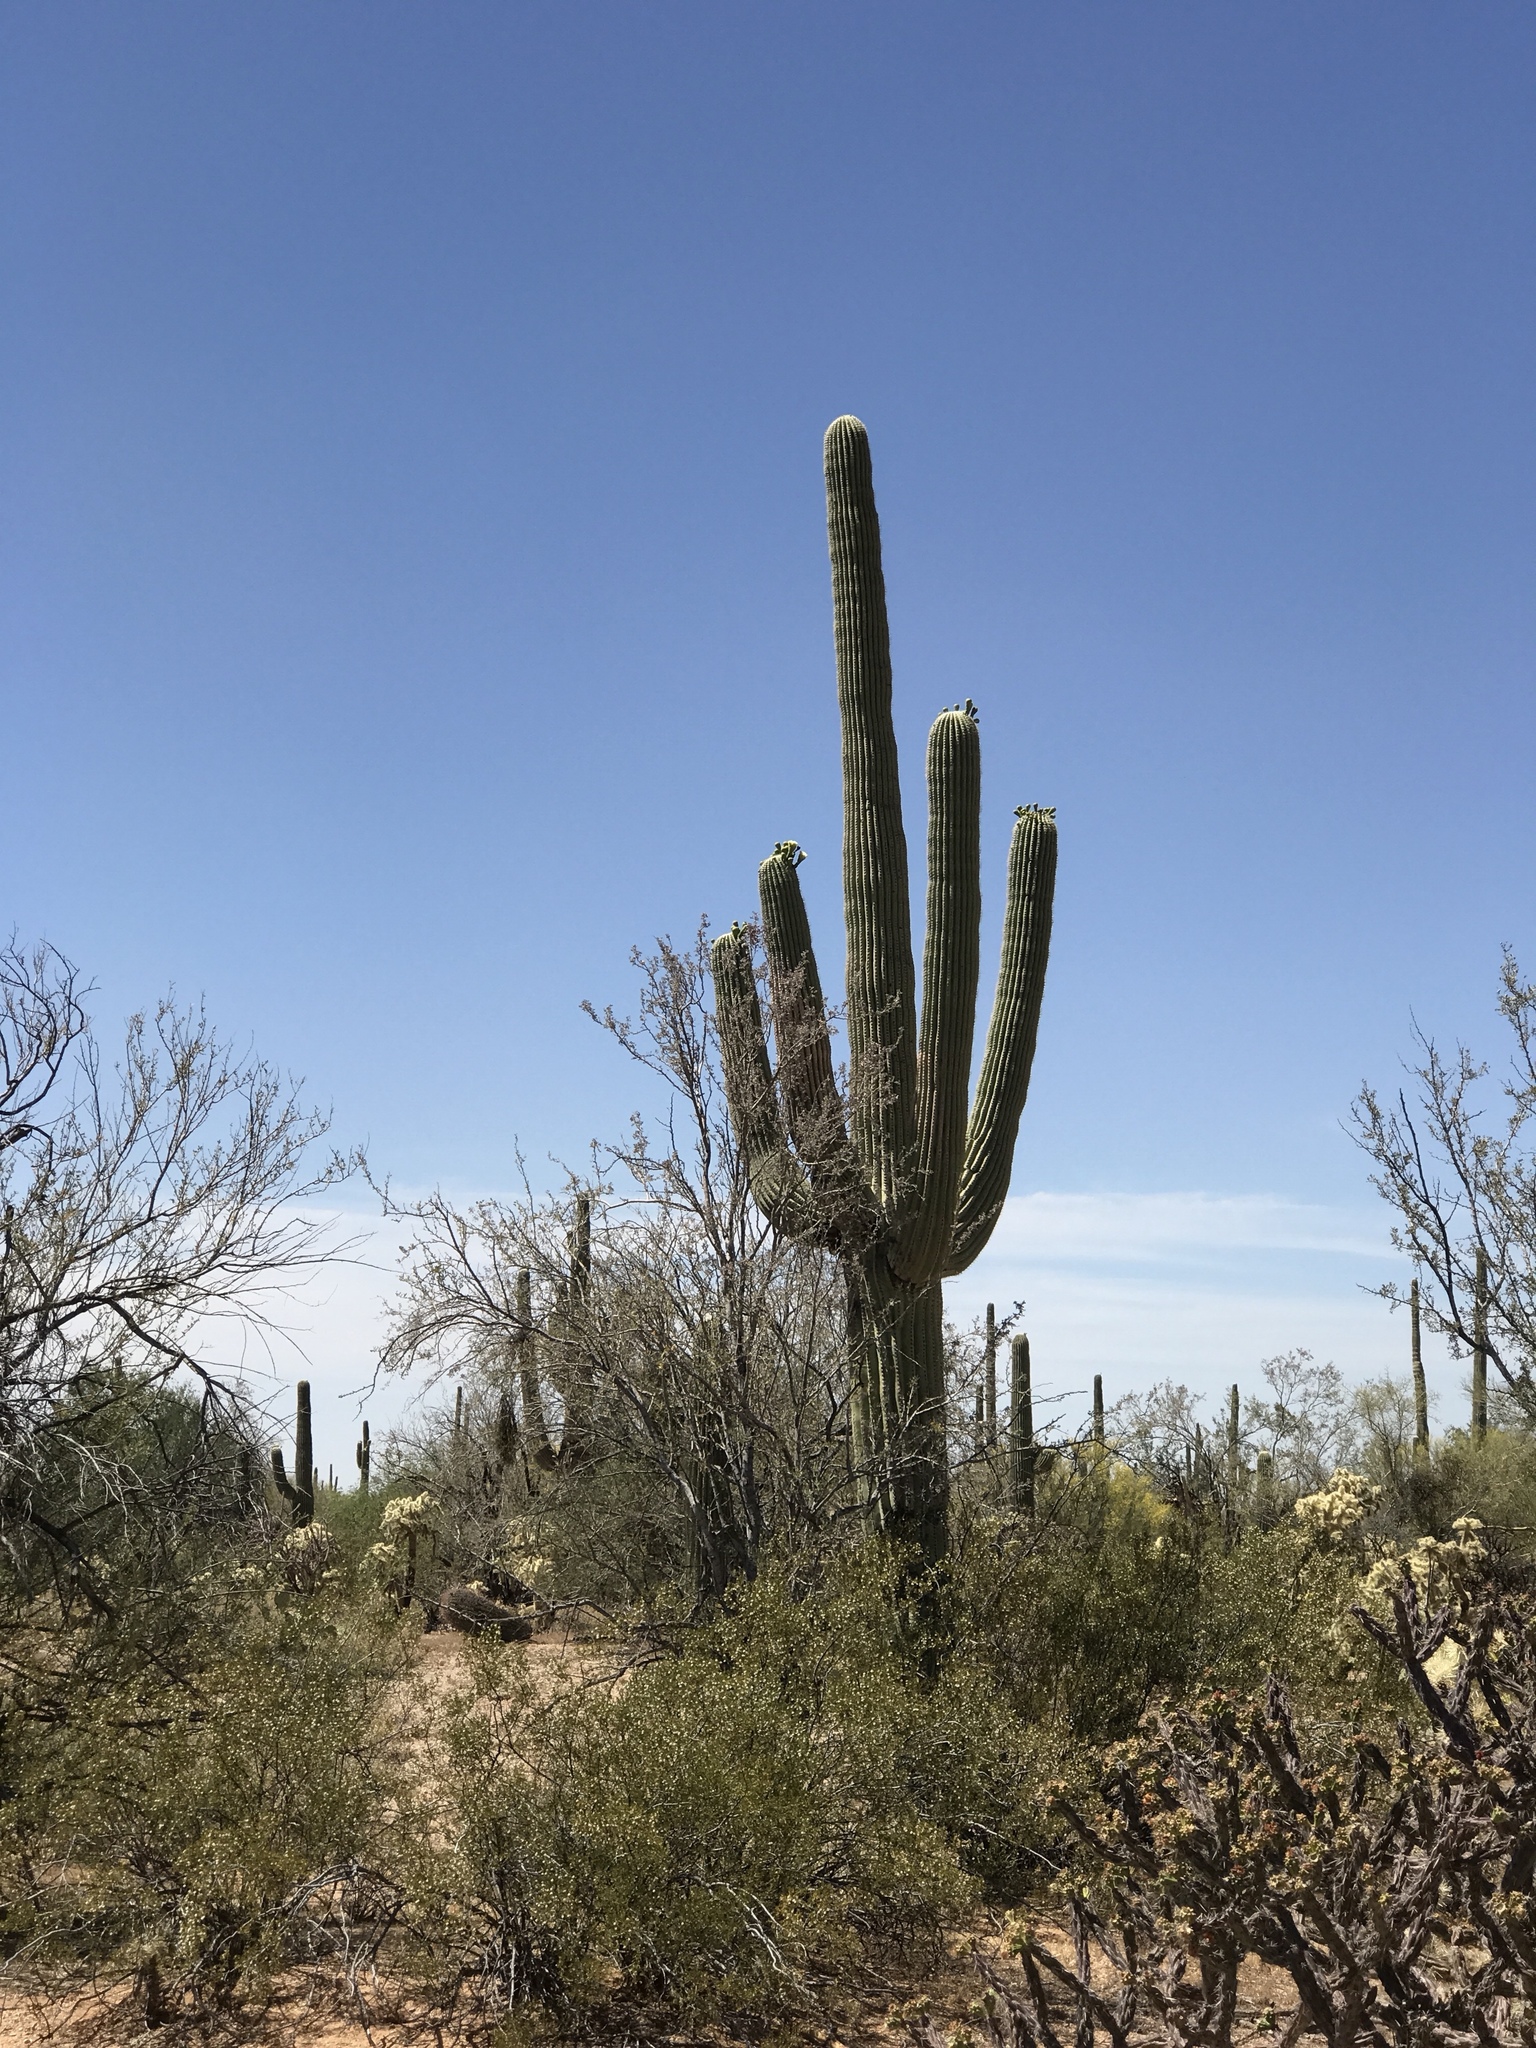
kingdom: Plantae
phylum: Tracheophyta
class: Magnoliopsida
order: Caryophyllales
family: Cactaceae
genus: Carnegiea
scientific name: Carnegiea gigantea
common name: Saguaro
